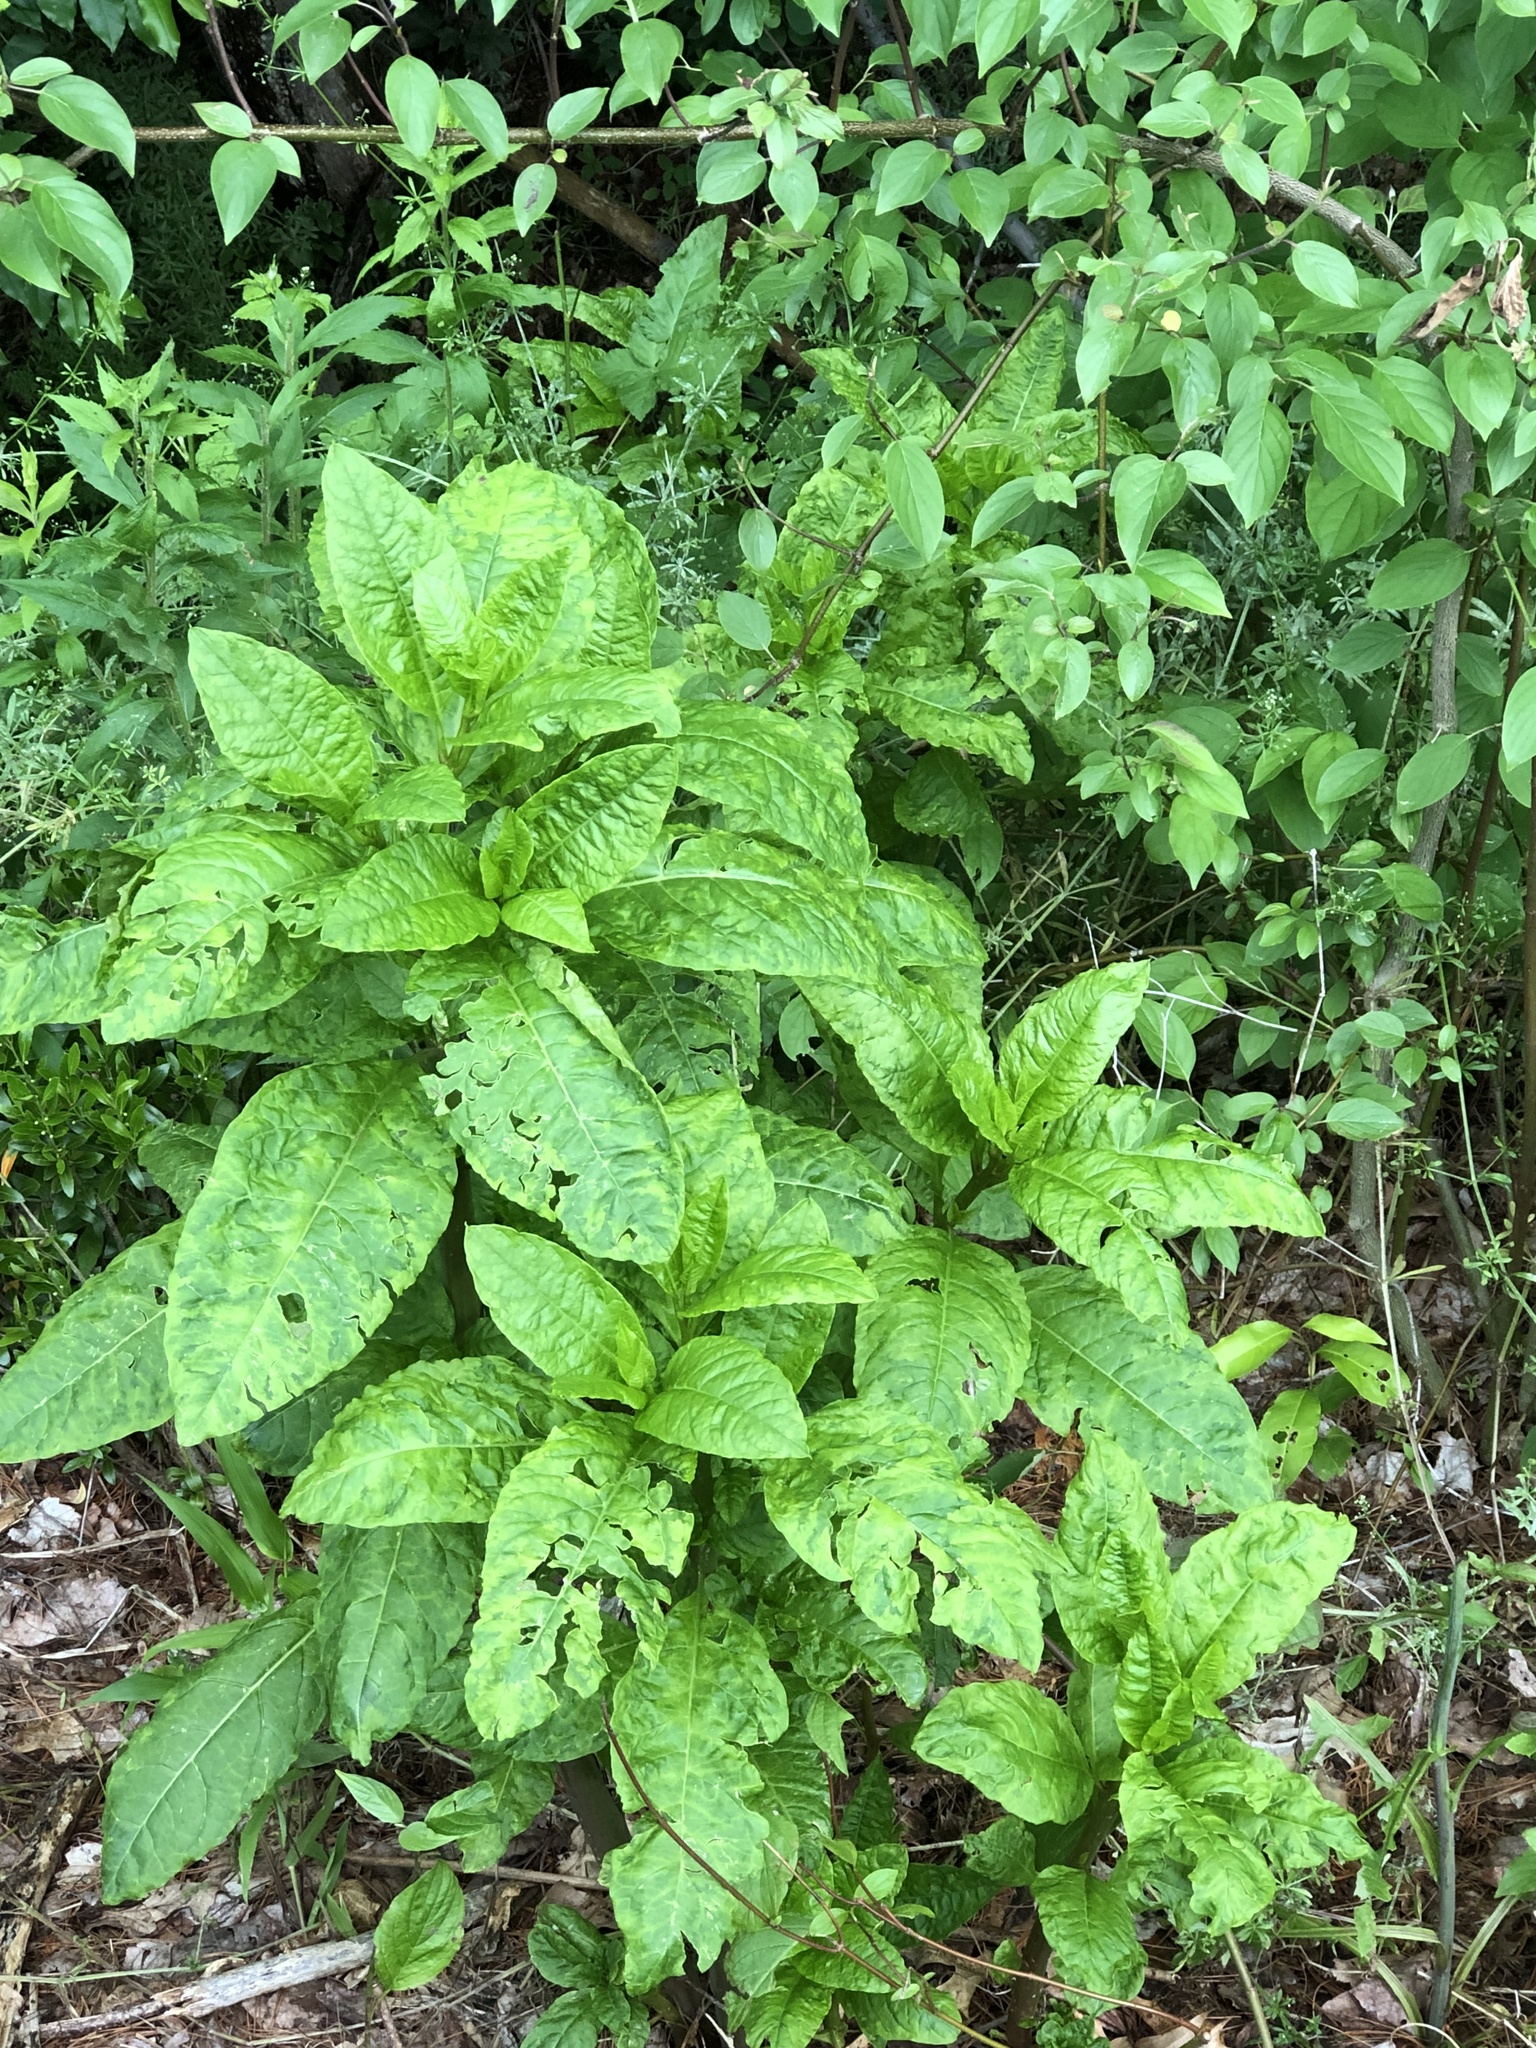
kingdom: Viruses
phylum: Pisuviricota
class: Stelpaviricetes
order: Patatavirales
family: Potyviridae
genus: Potyvirus
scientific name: Potyvirus Pokeweed mosaic virus
